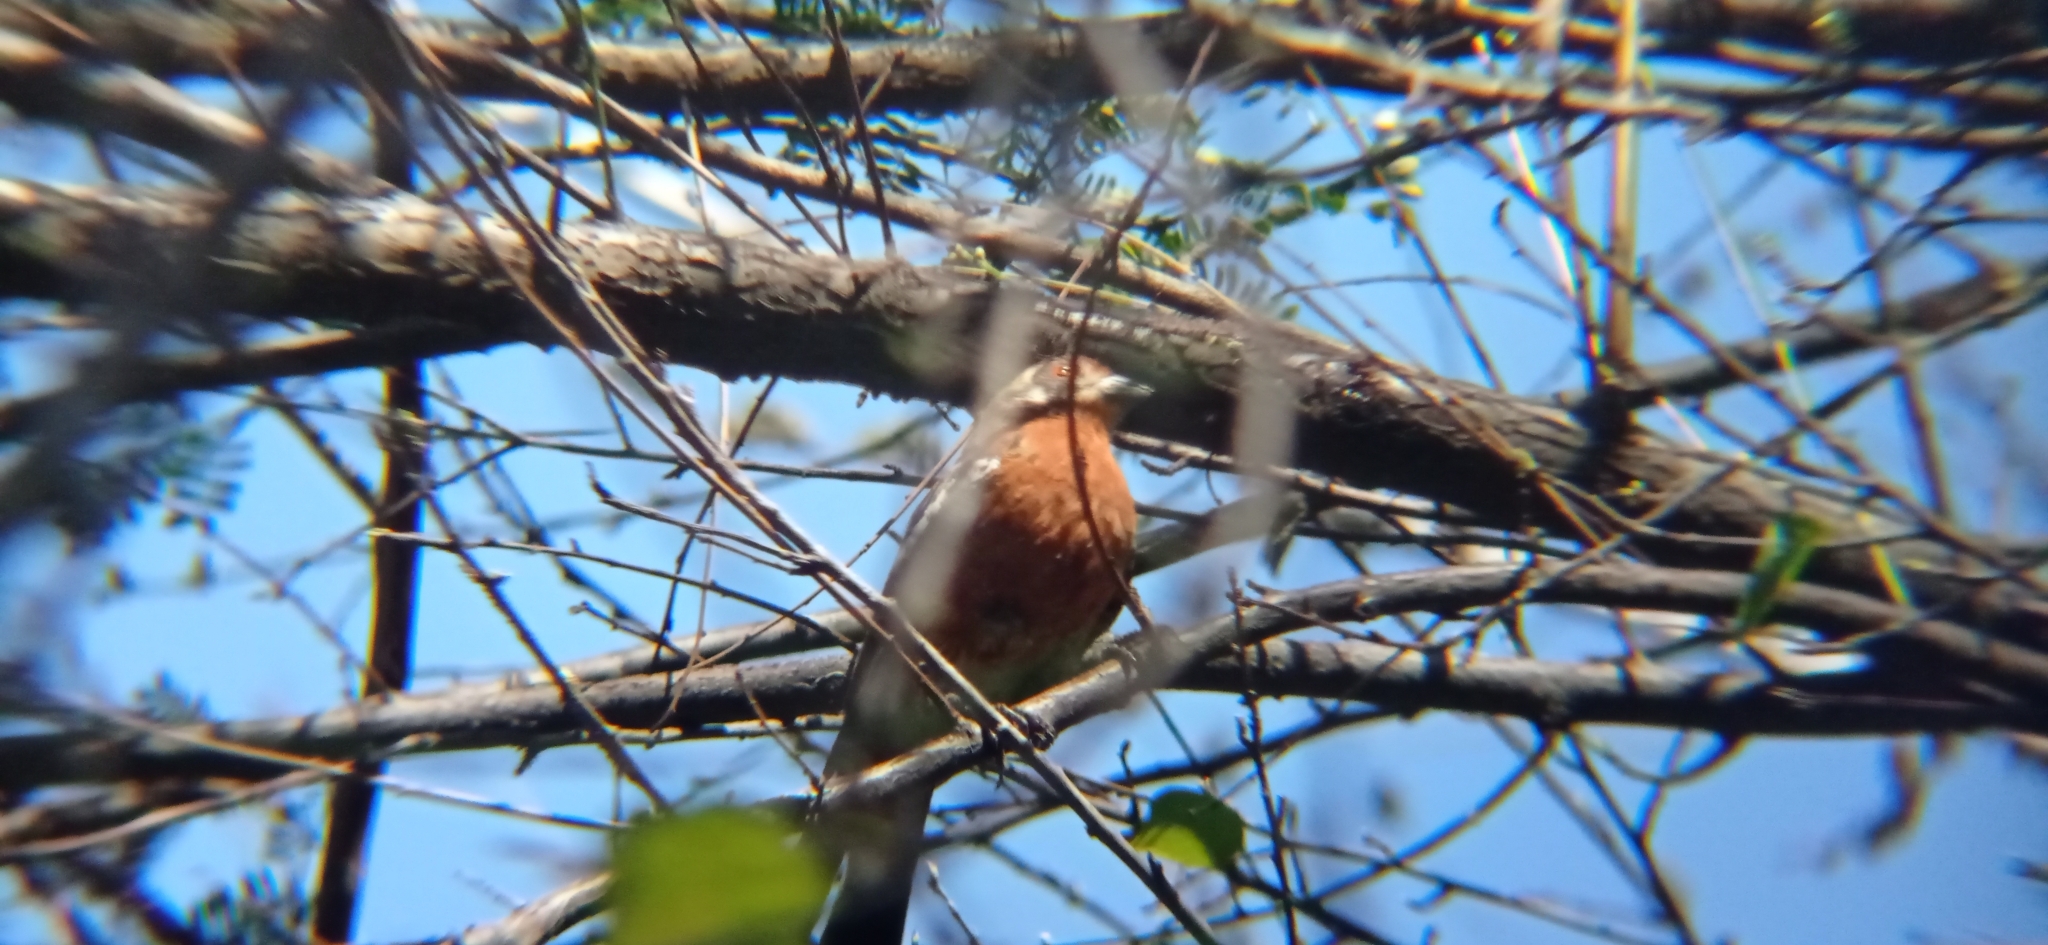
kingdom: Animalia
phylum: Chordata
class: Aves
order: Passeriformes
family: Cotingidae
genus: Phytotoma
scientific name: Phytotoma rara
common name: Rufous-tailed plantcutter
